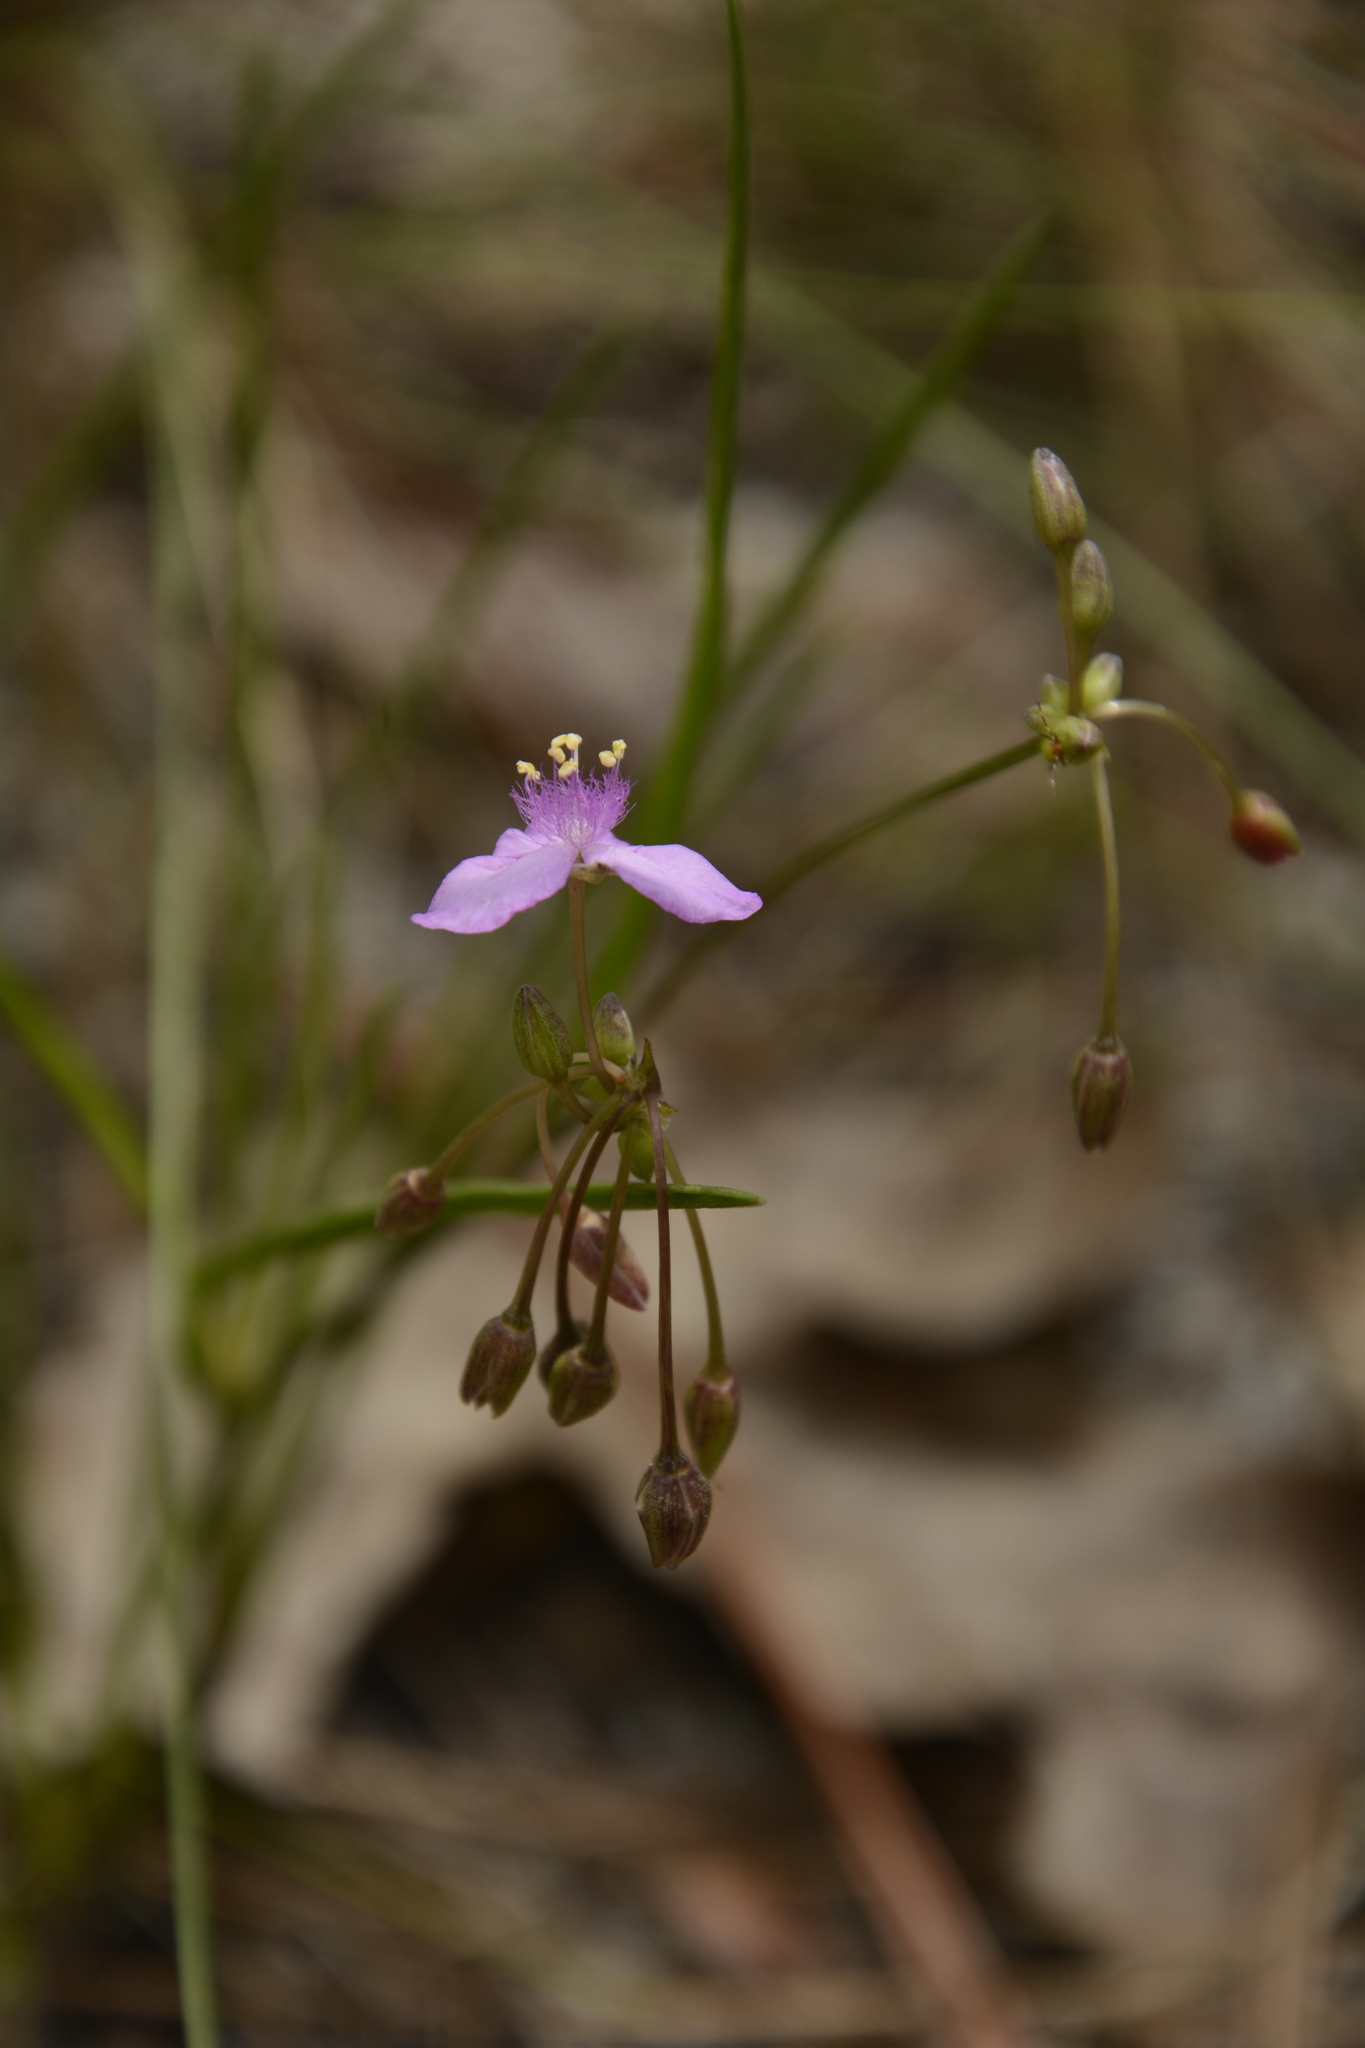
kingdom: Plantae
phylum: Tracheophyta
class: Liliopsida
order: Commelinales
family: Commelinaceae
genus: Callisia
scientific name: Callisia ornata
